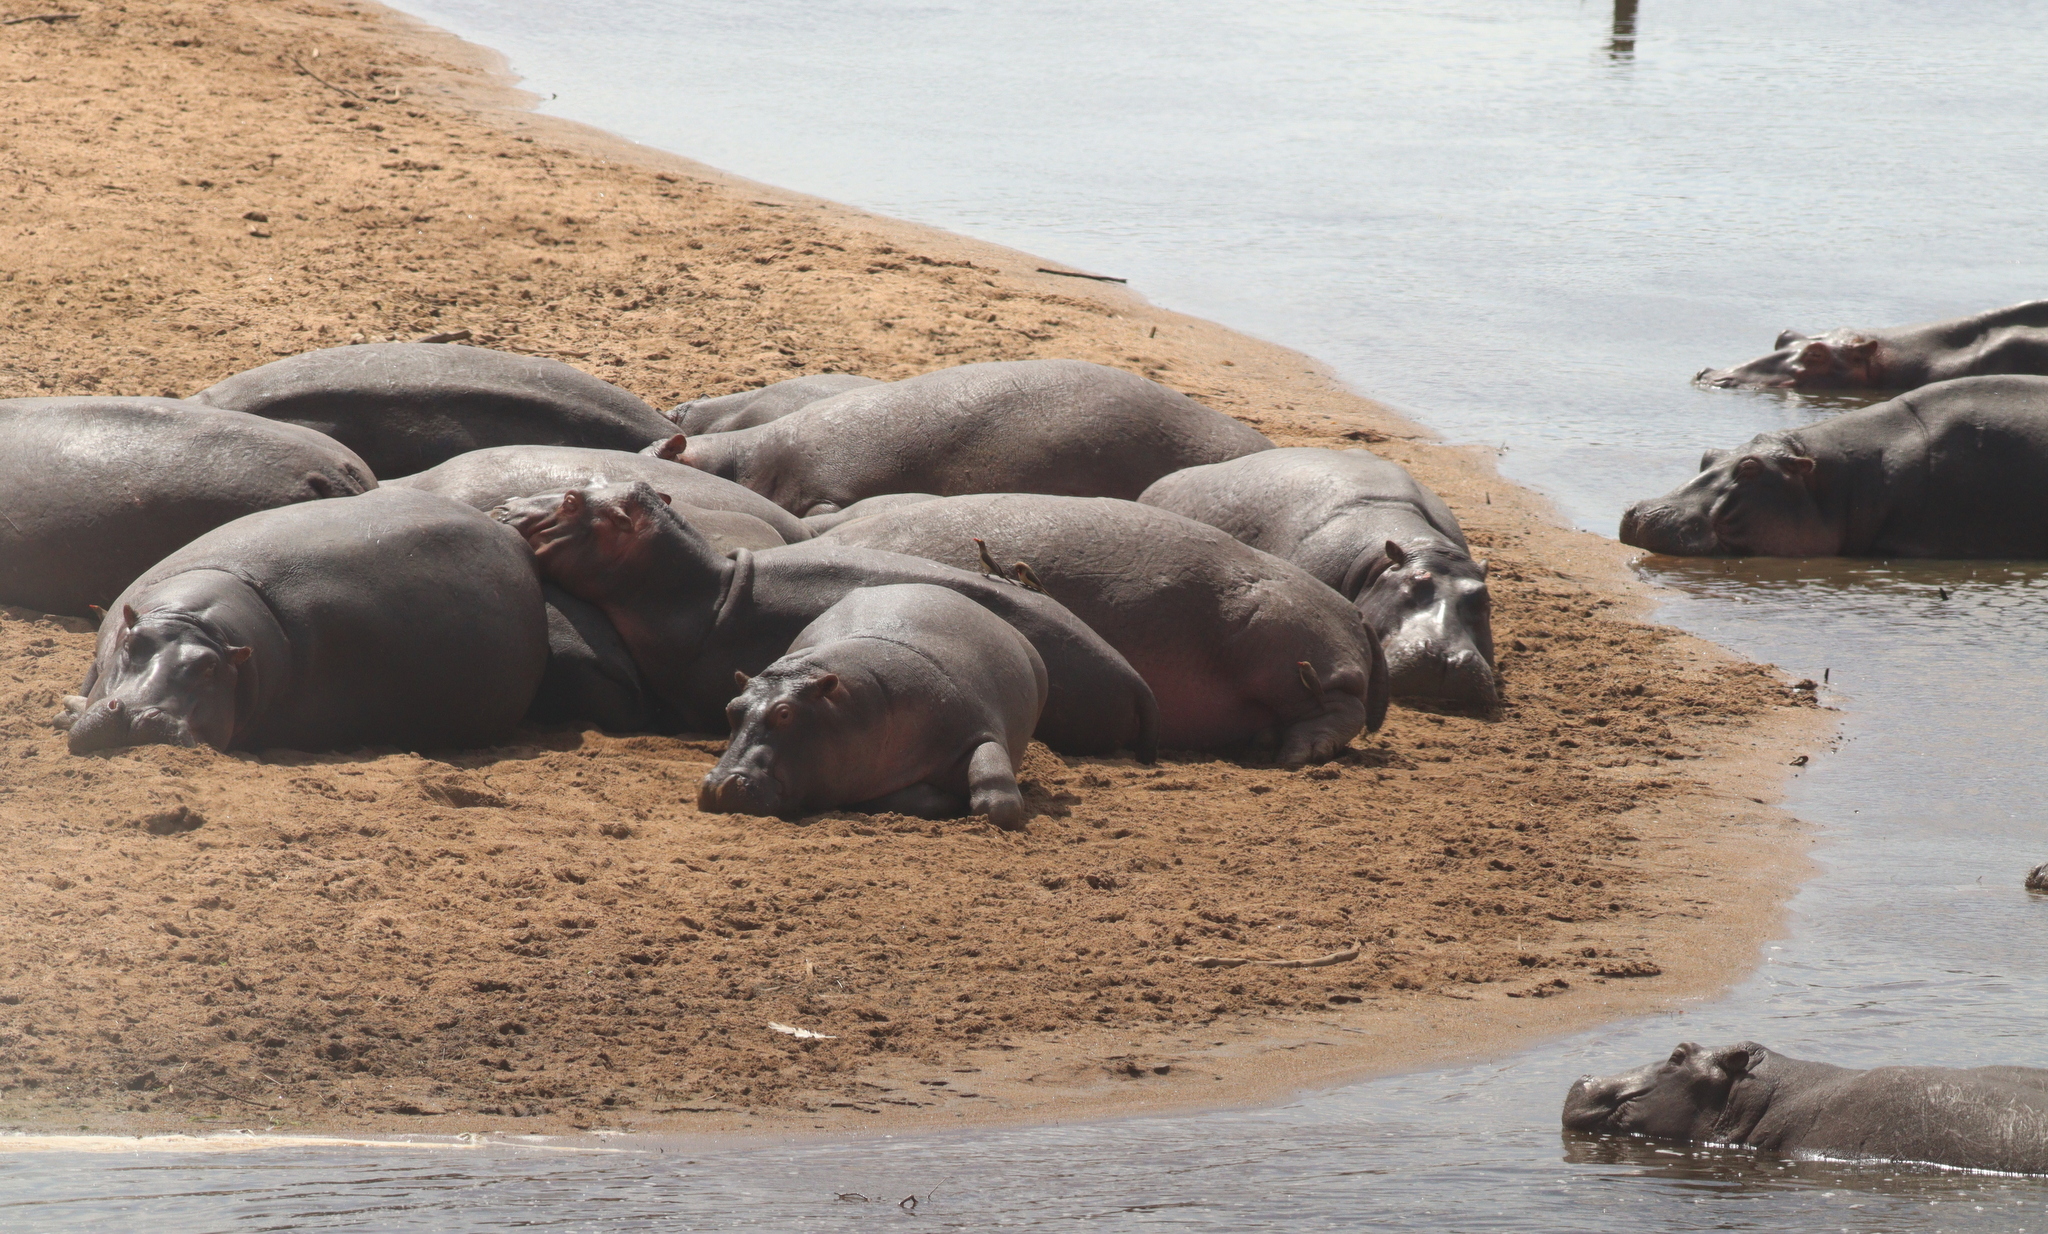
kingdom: Animalia
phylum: Chordata
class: Mammalia
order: Artiodactyla
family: Hippopotamidae
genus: Hippopotamus
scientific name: Hippopotamus amphibius
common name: Common hippopotamus
